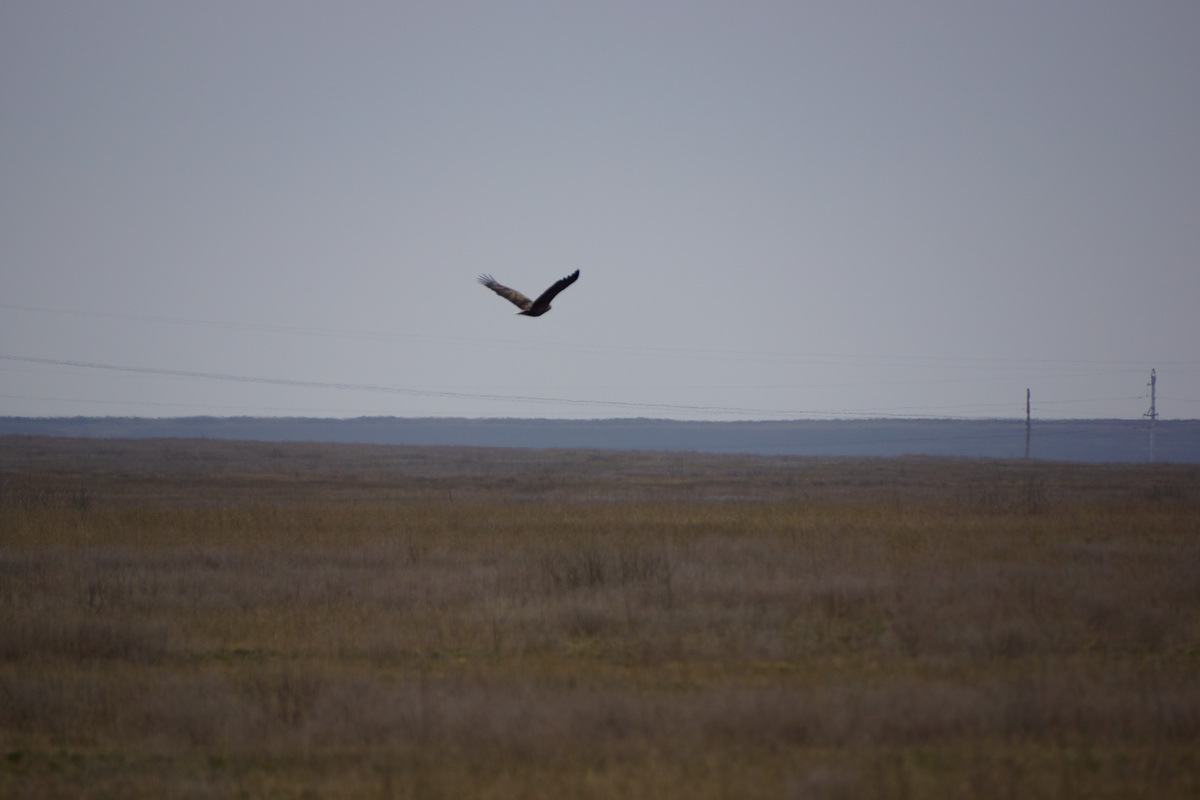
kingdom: Animalia
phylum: Chordata
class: Aves
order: Accipitriformes
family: Accipitridae
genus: Haliaeetus
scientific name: Haliaeetus albicilla
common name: White-tailed eagle
